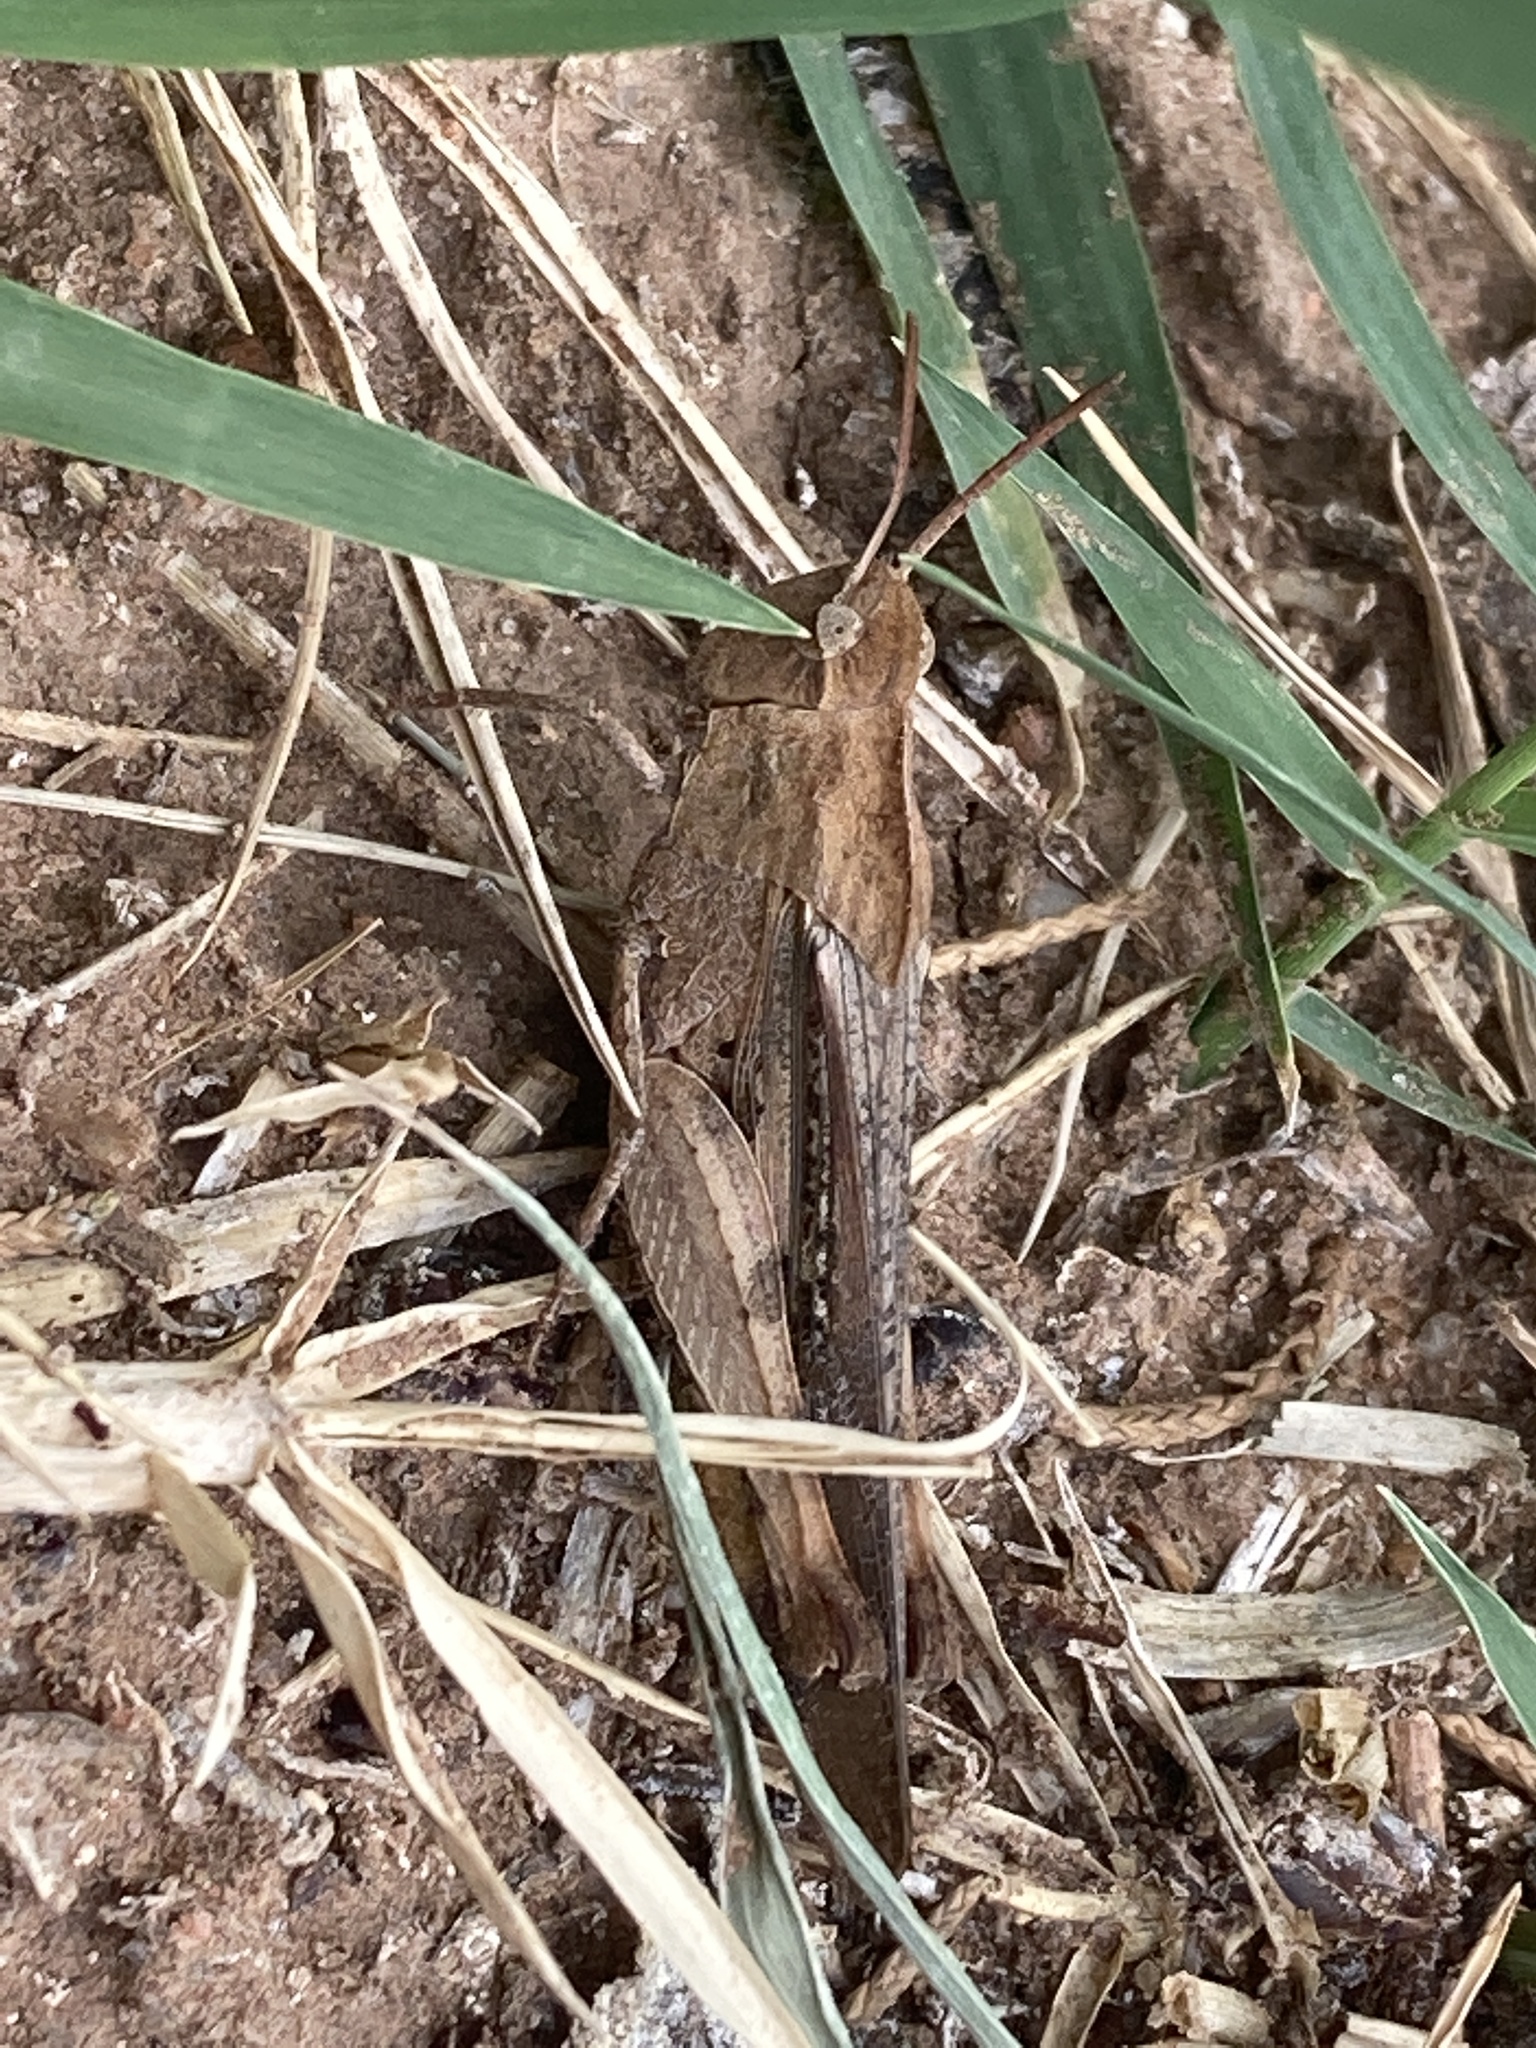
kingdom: Animalia
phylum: Arthropoda
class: Insecta
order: Orthoptera
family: Acrididae
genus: Chortophaga
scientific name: Chortophaga viridifasciata
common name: Green-striped grasshopper
